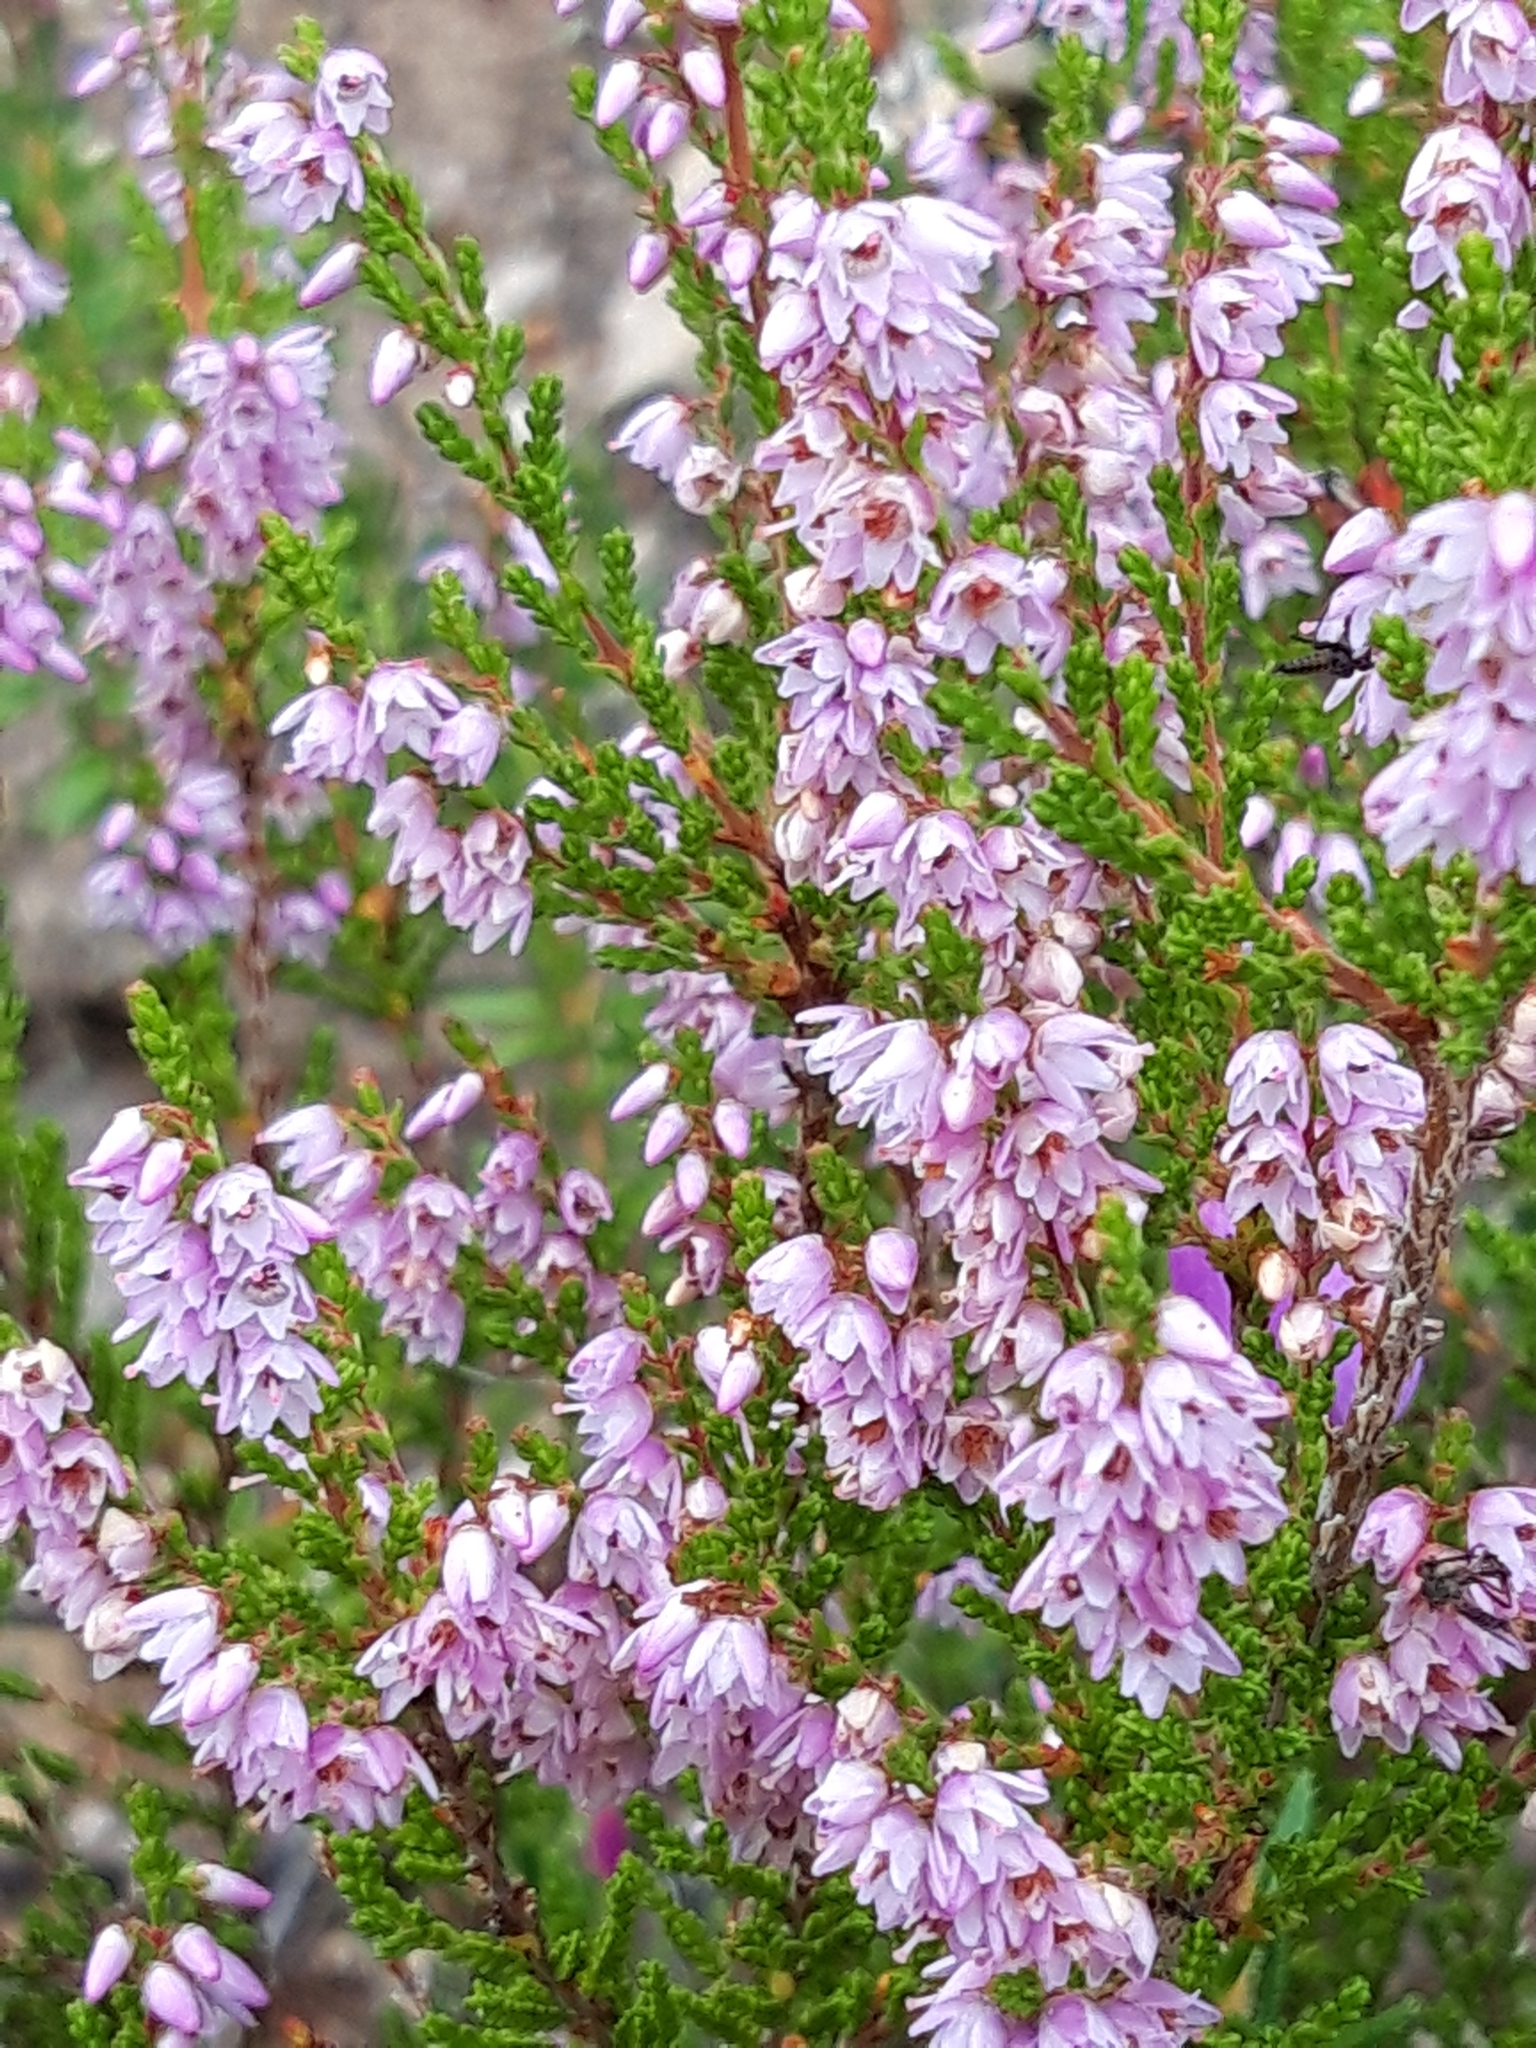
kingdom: Plantae
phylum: Tracheophyta
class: Magnoliopsida
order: Ericales
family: Ericaceae
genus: Calluna
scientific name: Calluna vulgaris
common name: Heather
